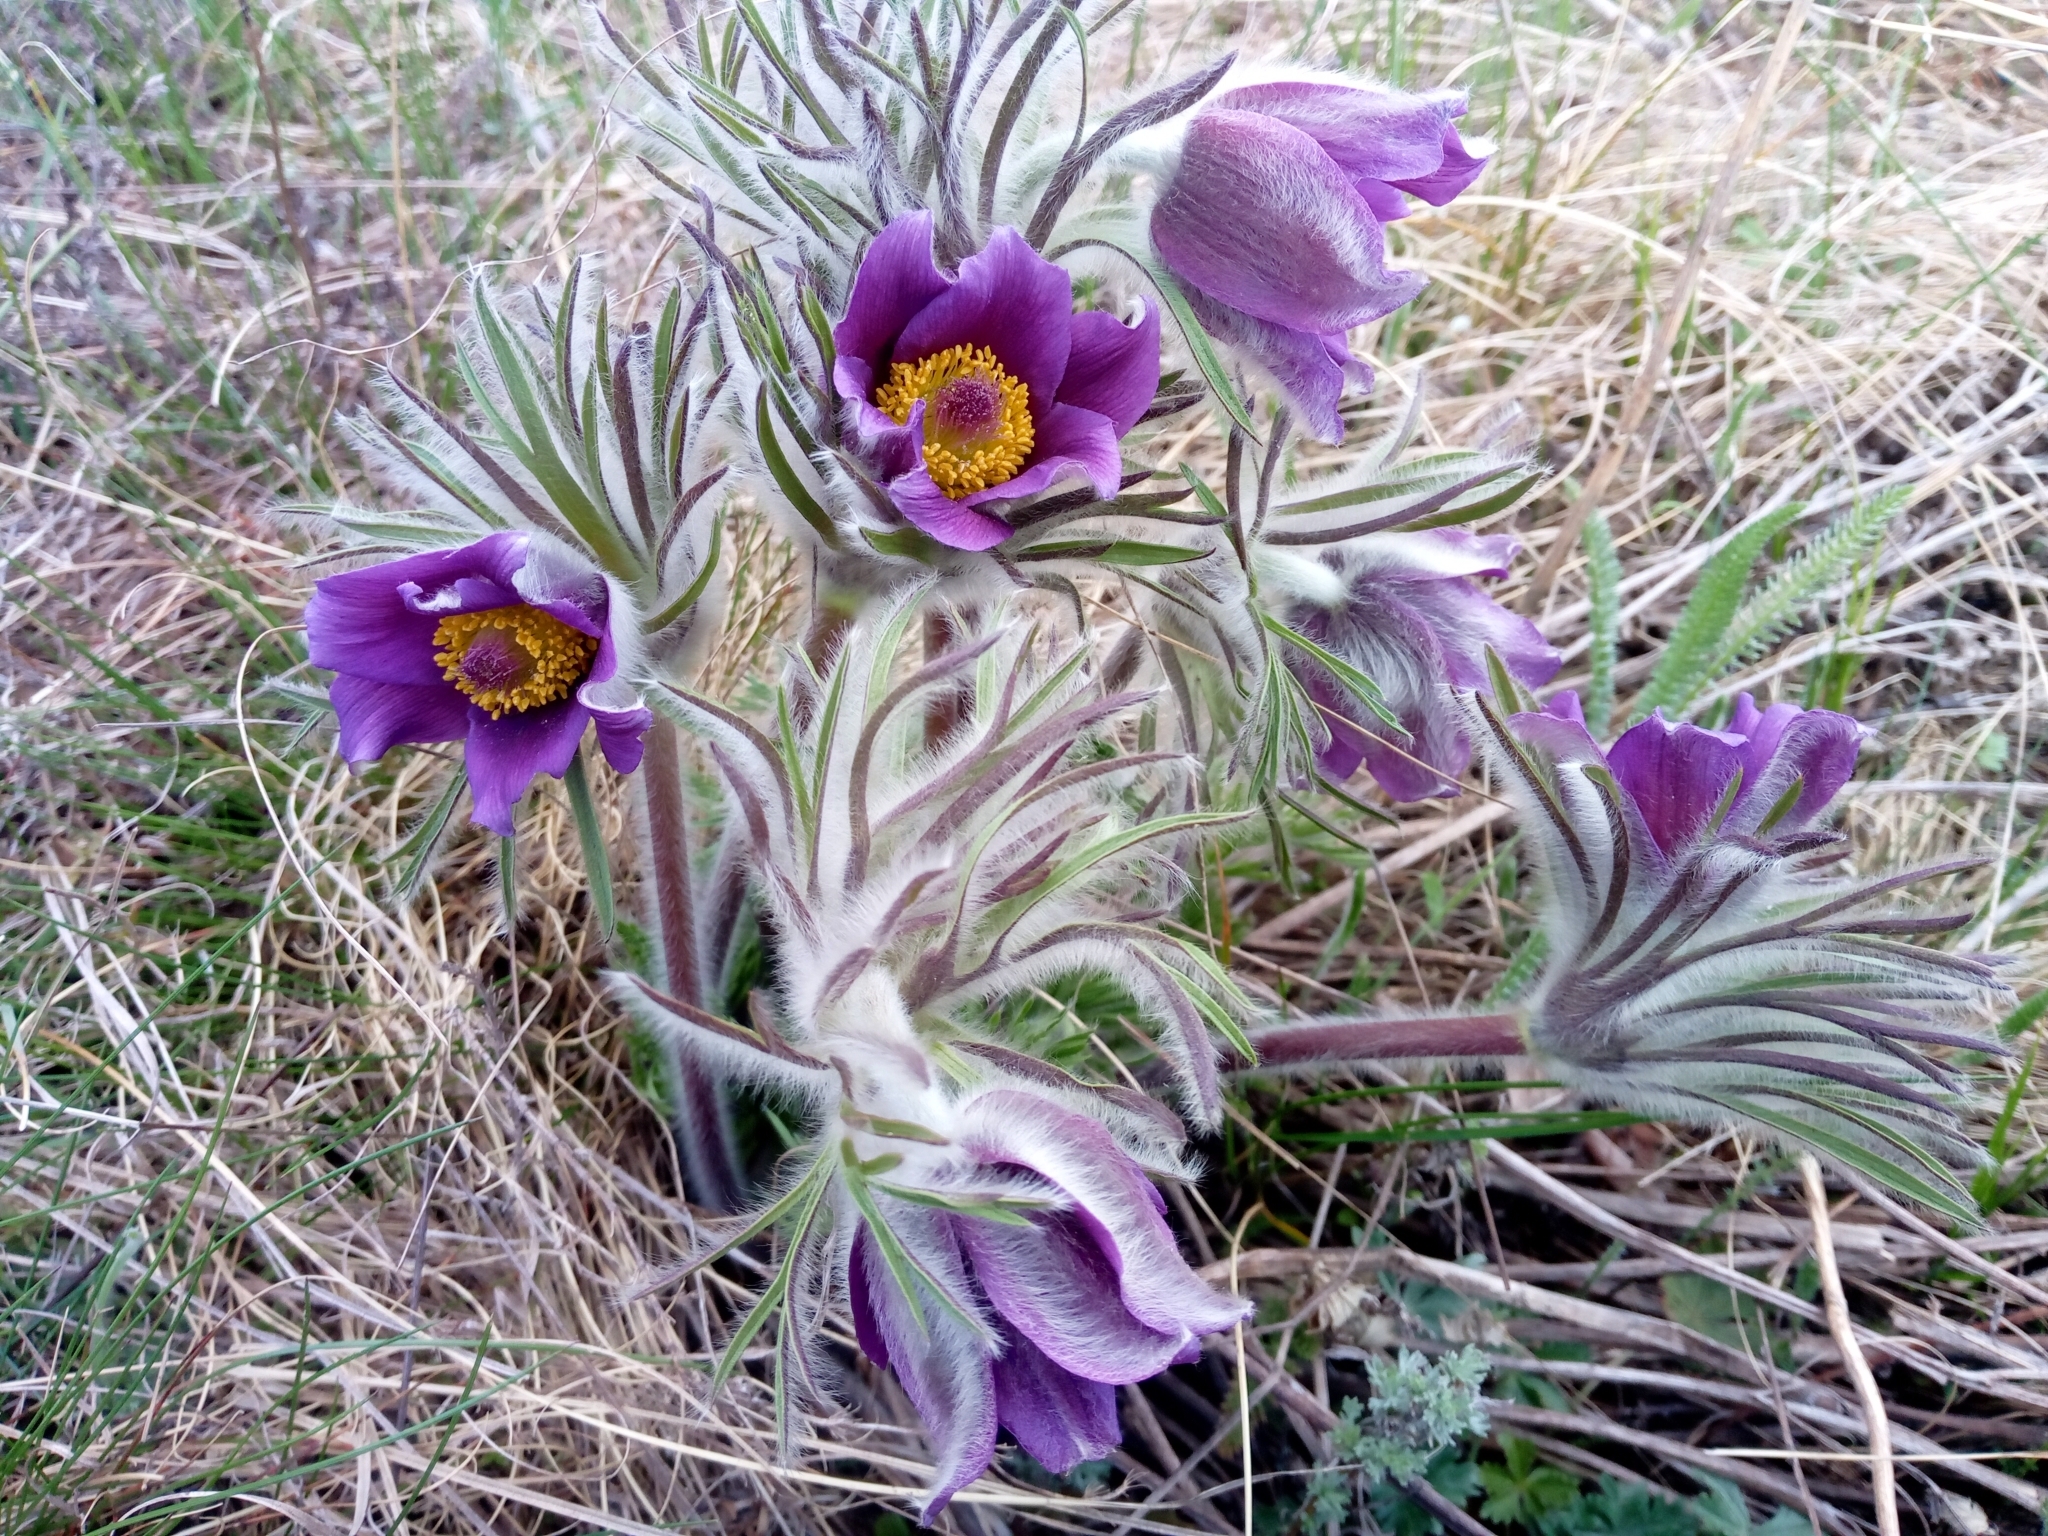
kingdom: Plantae
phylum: Tracheophyta
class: Magnoliopsida
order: Ranunculales
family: Ranunculaceae
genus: Pulsatilla
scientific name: Pulsatilla pratensis
